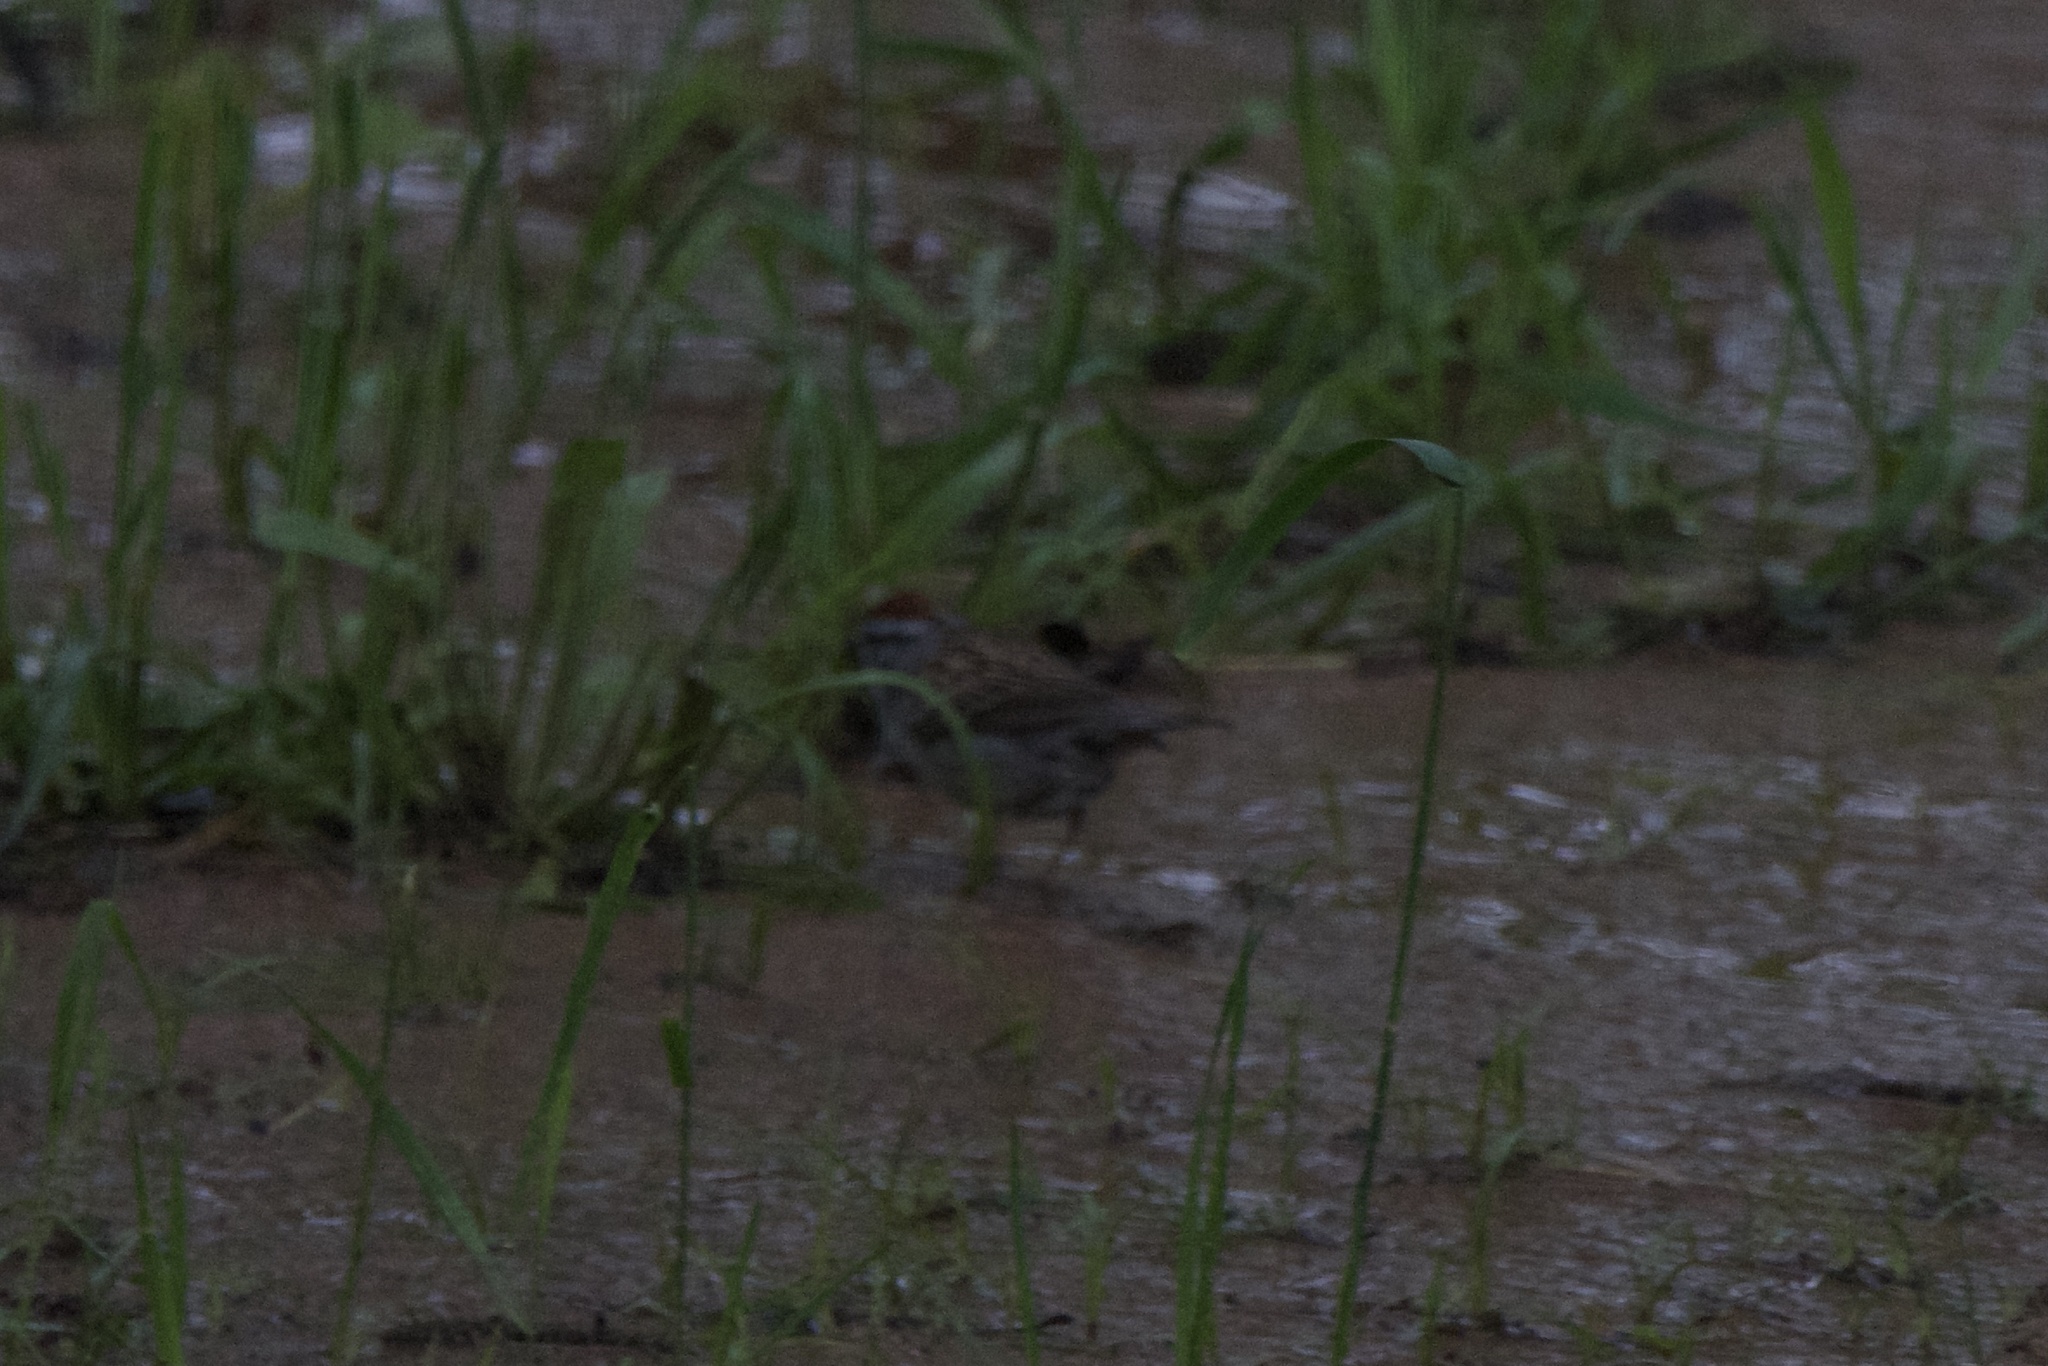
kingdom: Animalia
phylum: Chordata
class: Aves
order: Passeriformes
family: Passerellidae
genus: Spizella
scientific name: Spizella passerina
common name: Chipping sparrow
